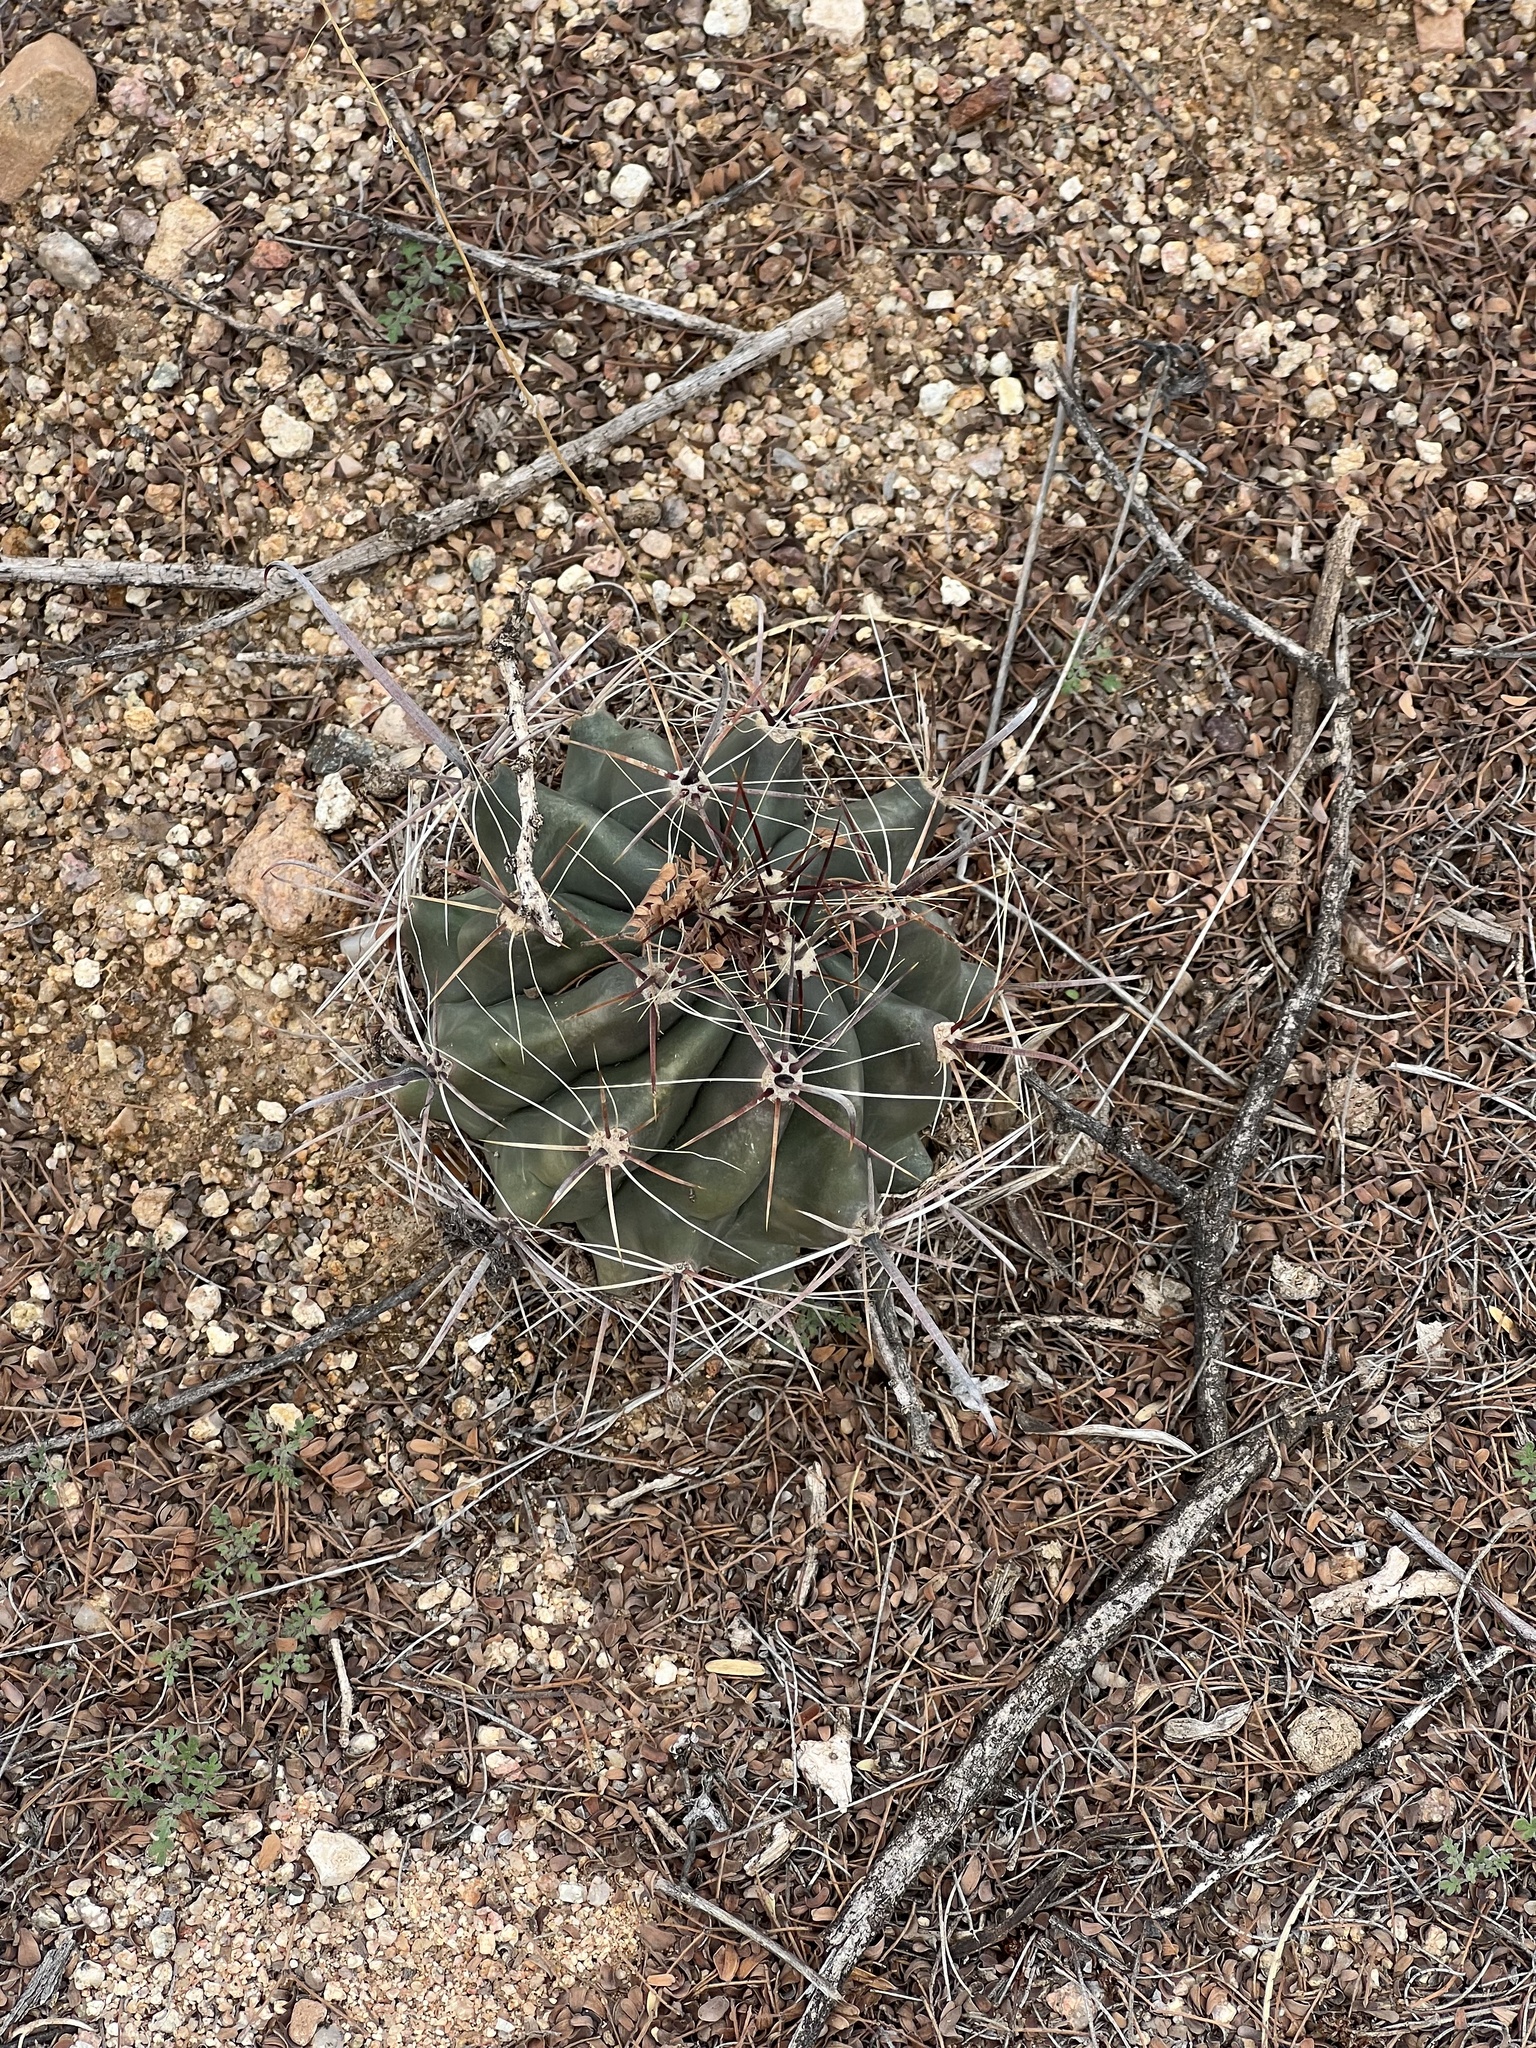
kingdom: Plantae
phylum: Tracheophyta
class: Magnoliopsida
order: Caryophyllales
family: Cactaceae
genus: Ferocactus
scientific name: Ferocactus wislizeni
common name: Candy barrel cactus
